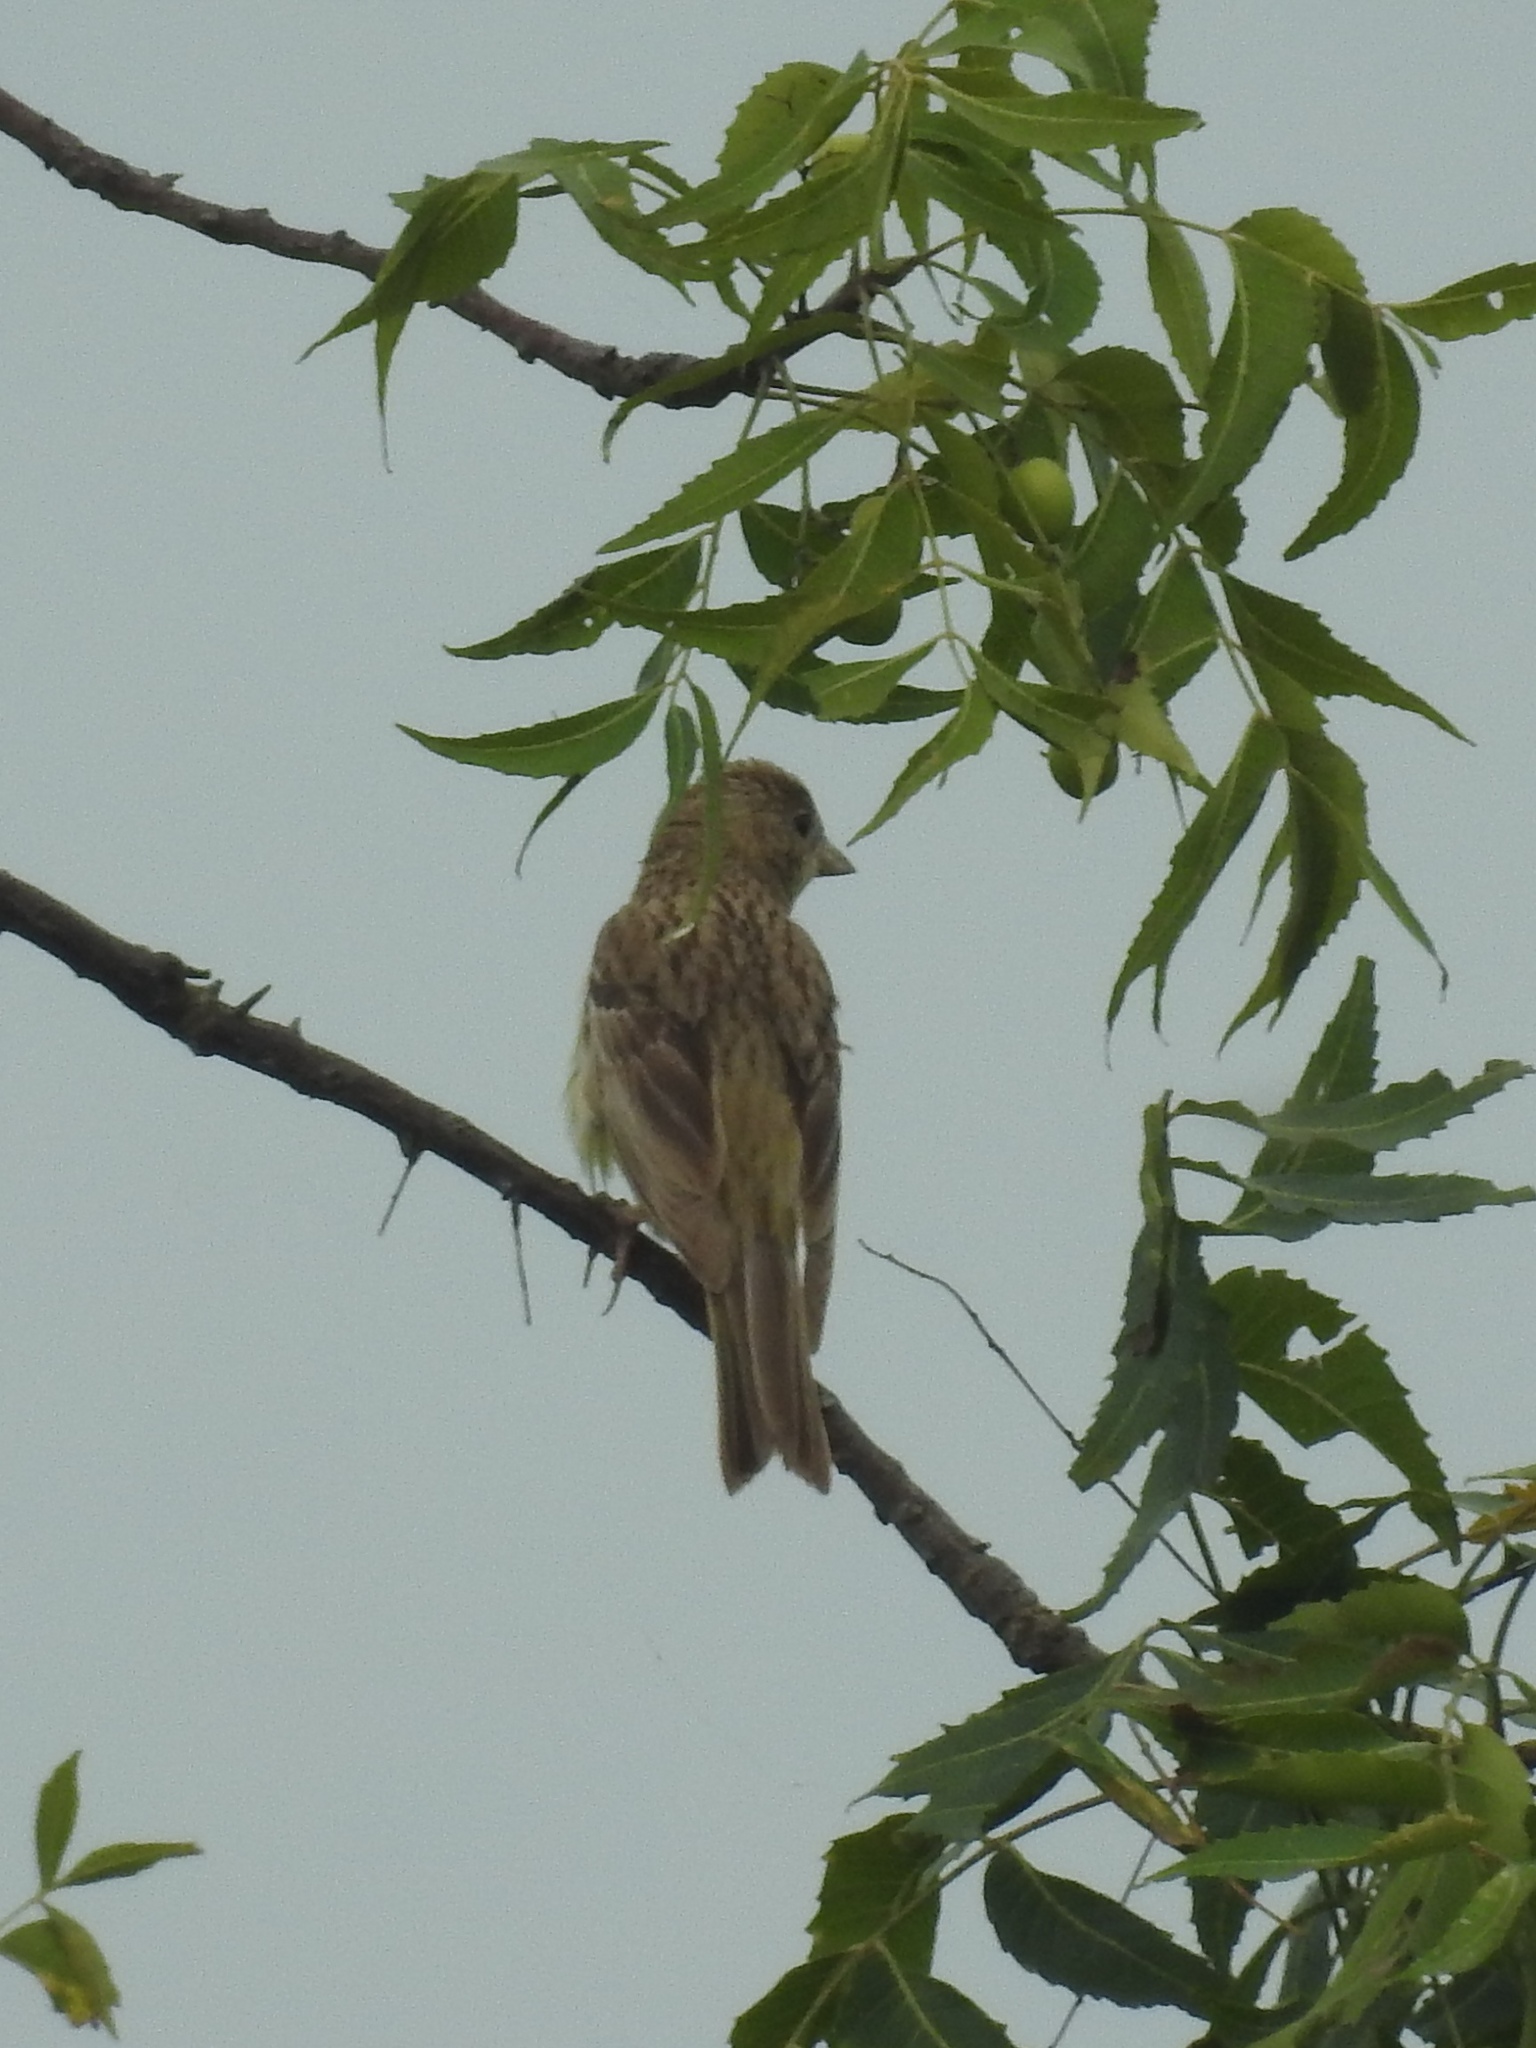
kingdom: Animalia
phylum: Chordata
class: Aves
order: Passeriformes
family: Fringillidae
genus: Carpodacus
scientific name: Carpodacus erythrinus
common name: Common rosefinch
